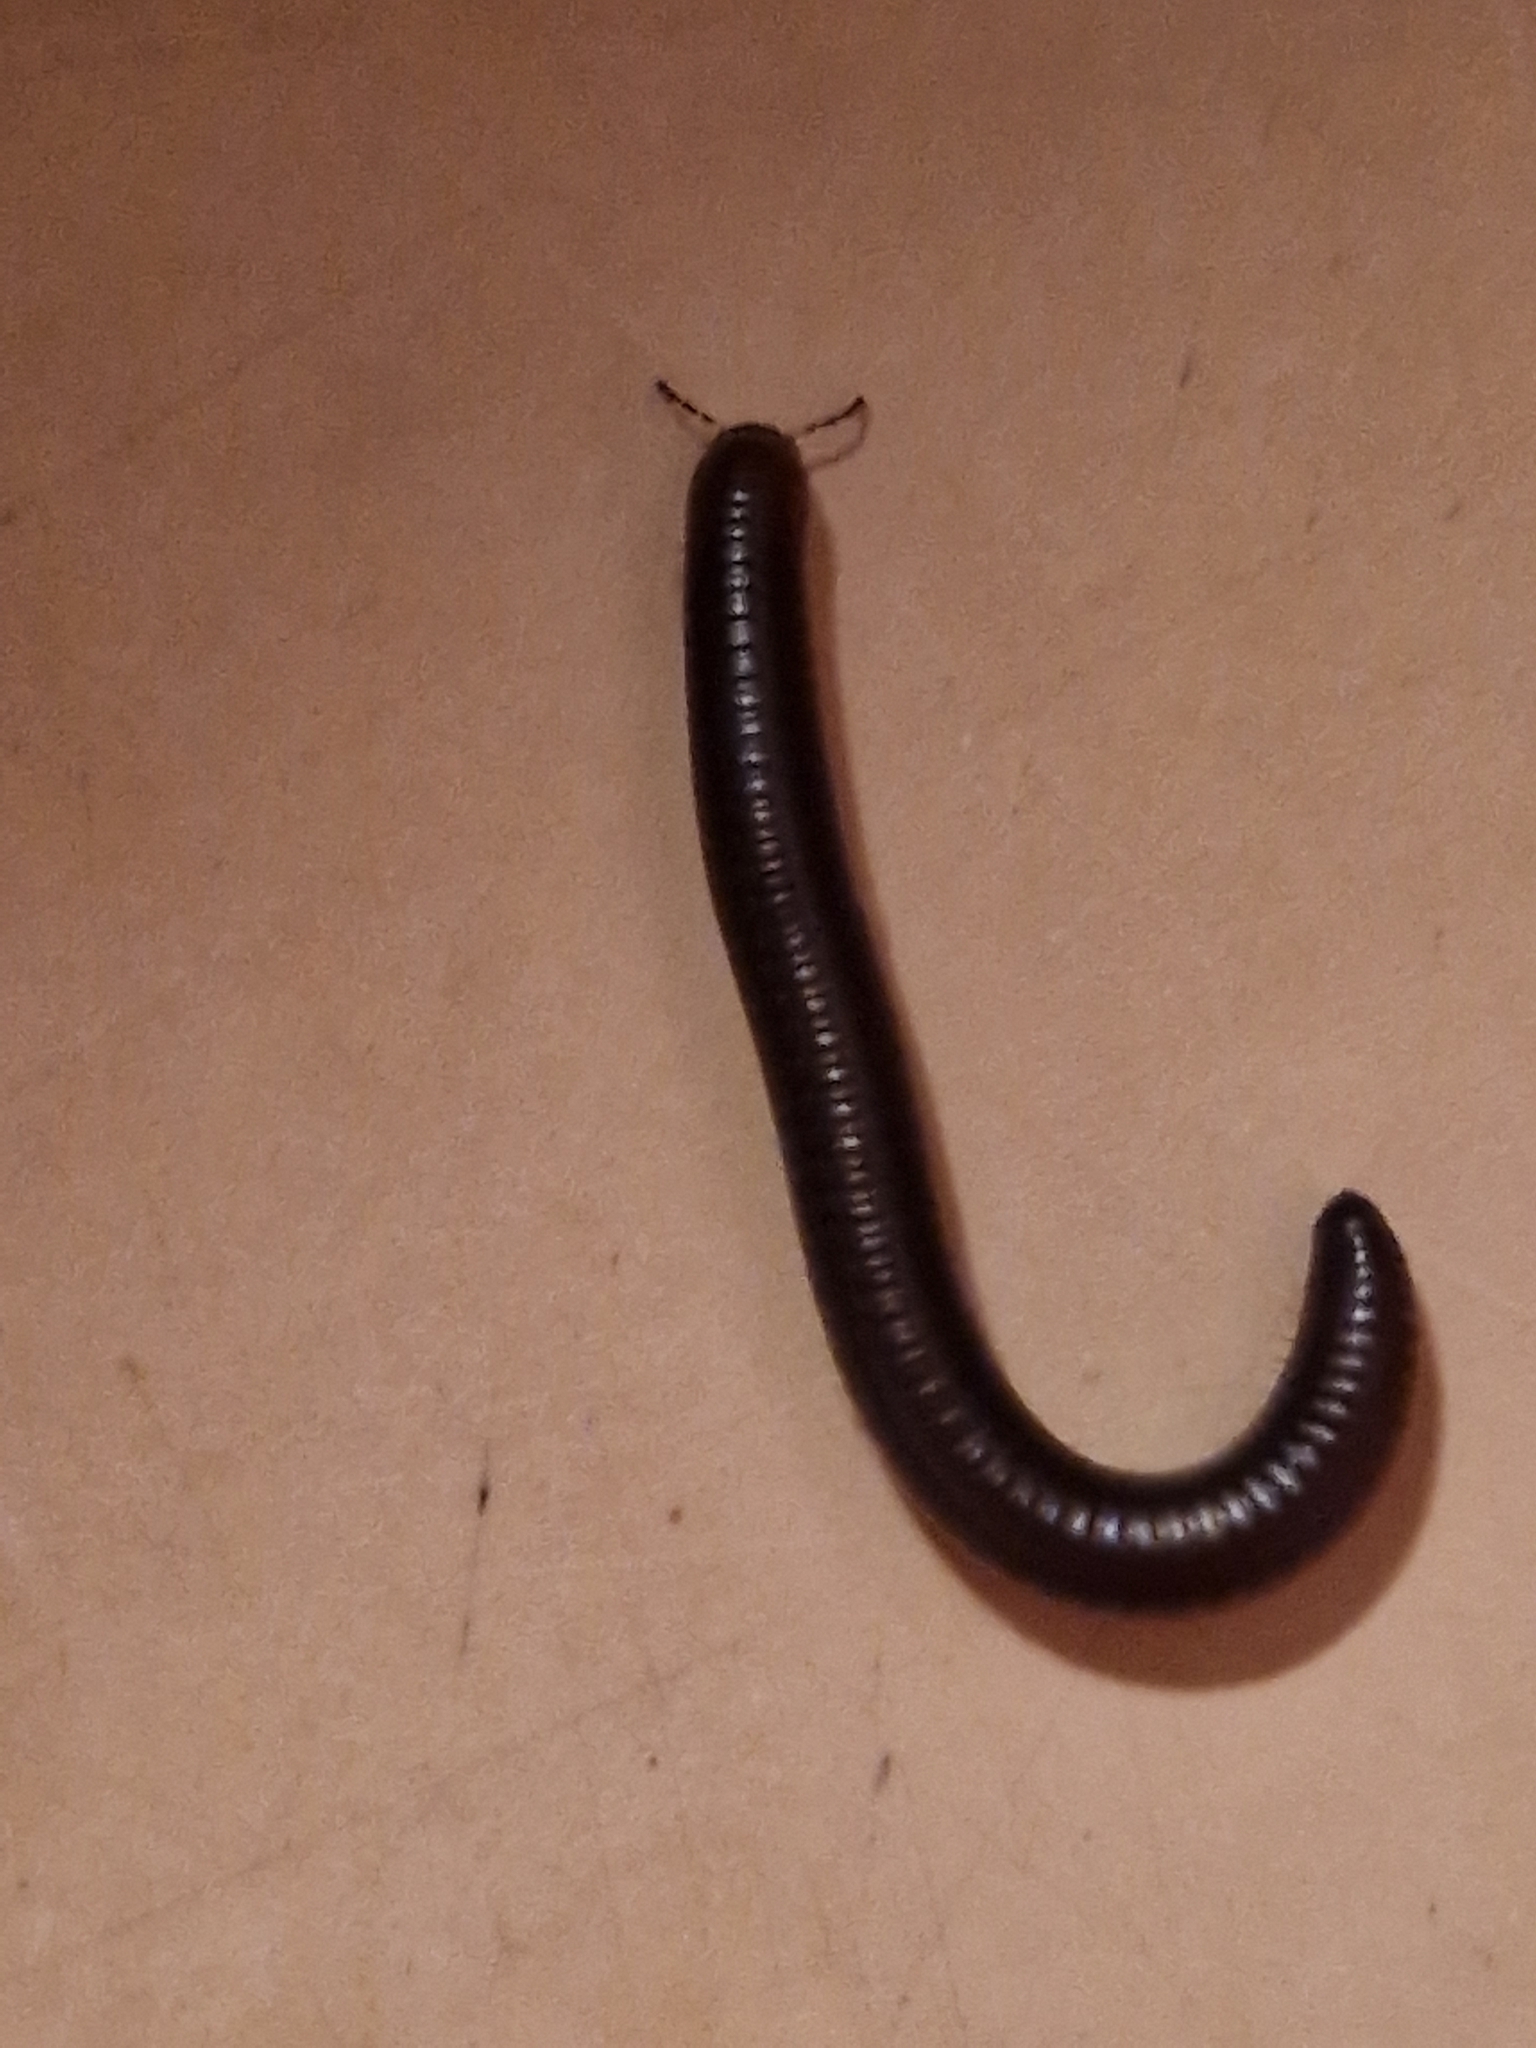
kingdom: Animalia
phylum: Arthropoda
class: Diplopoda
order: Julida
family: Julidae
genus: Pachyiulus
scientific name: Pachyiulus flavipes
